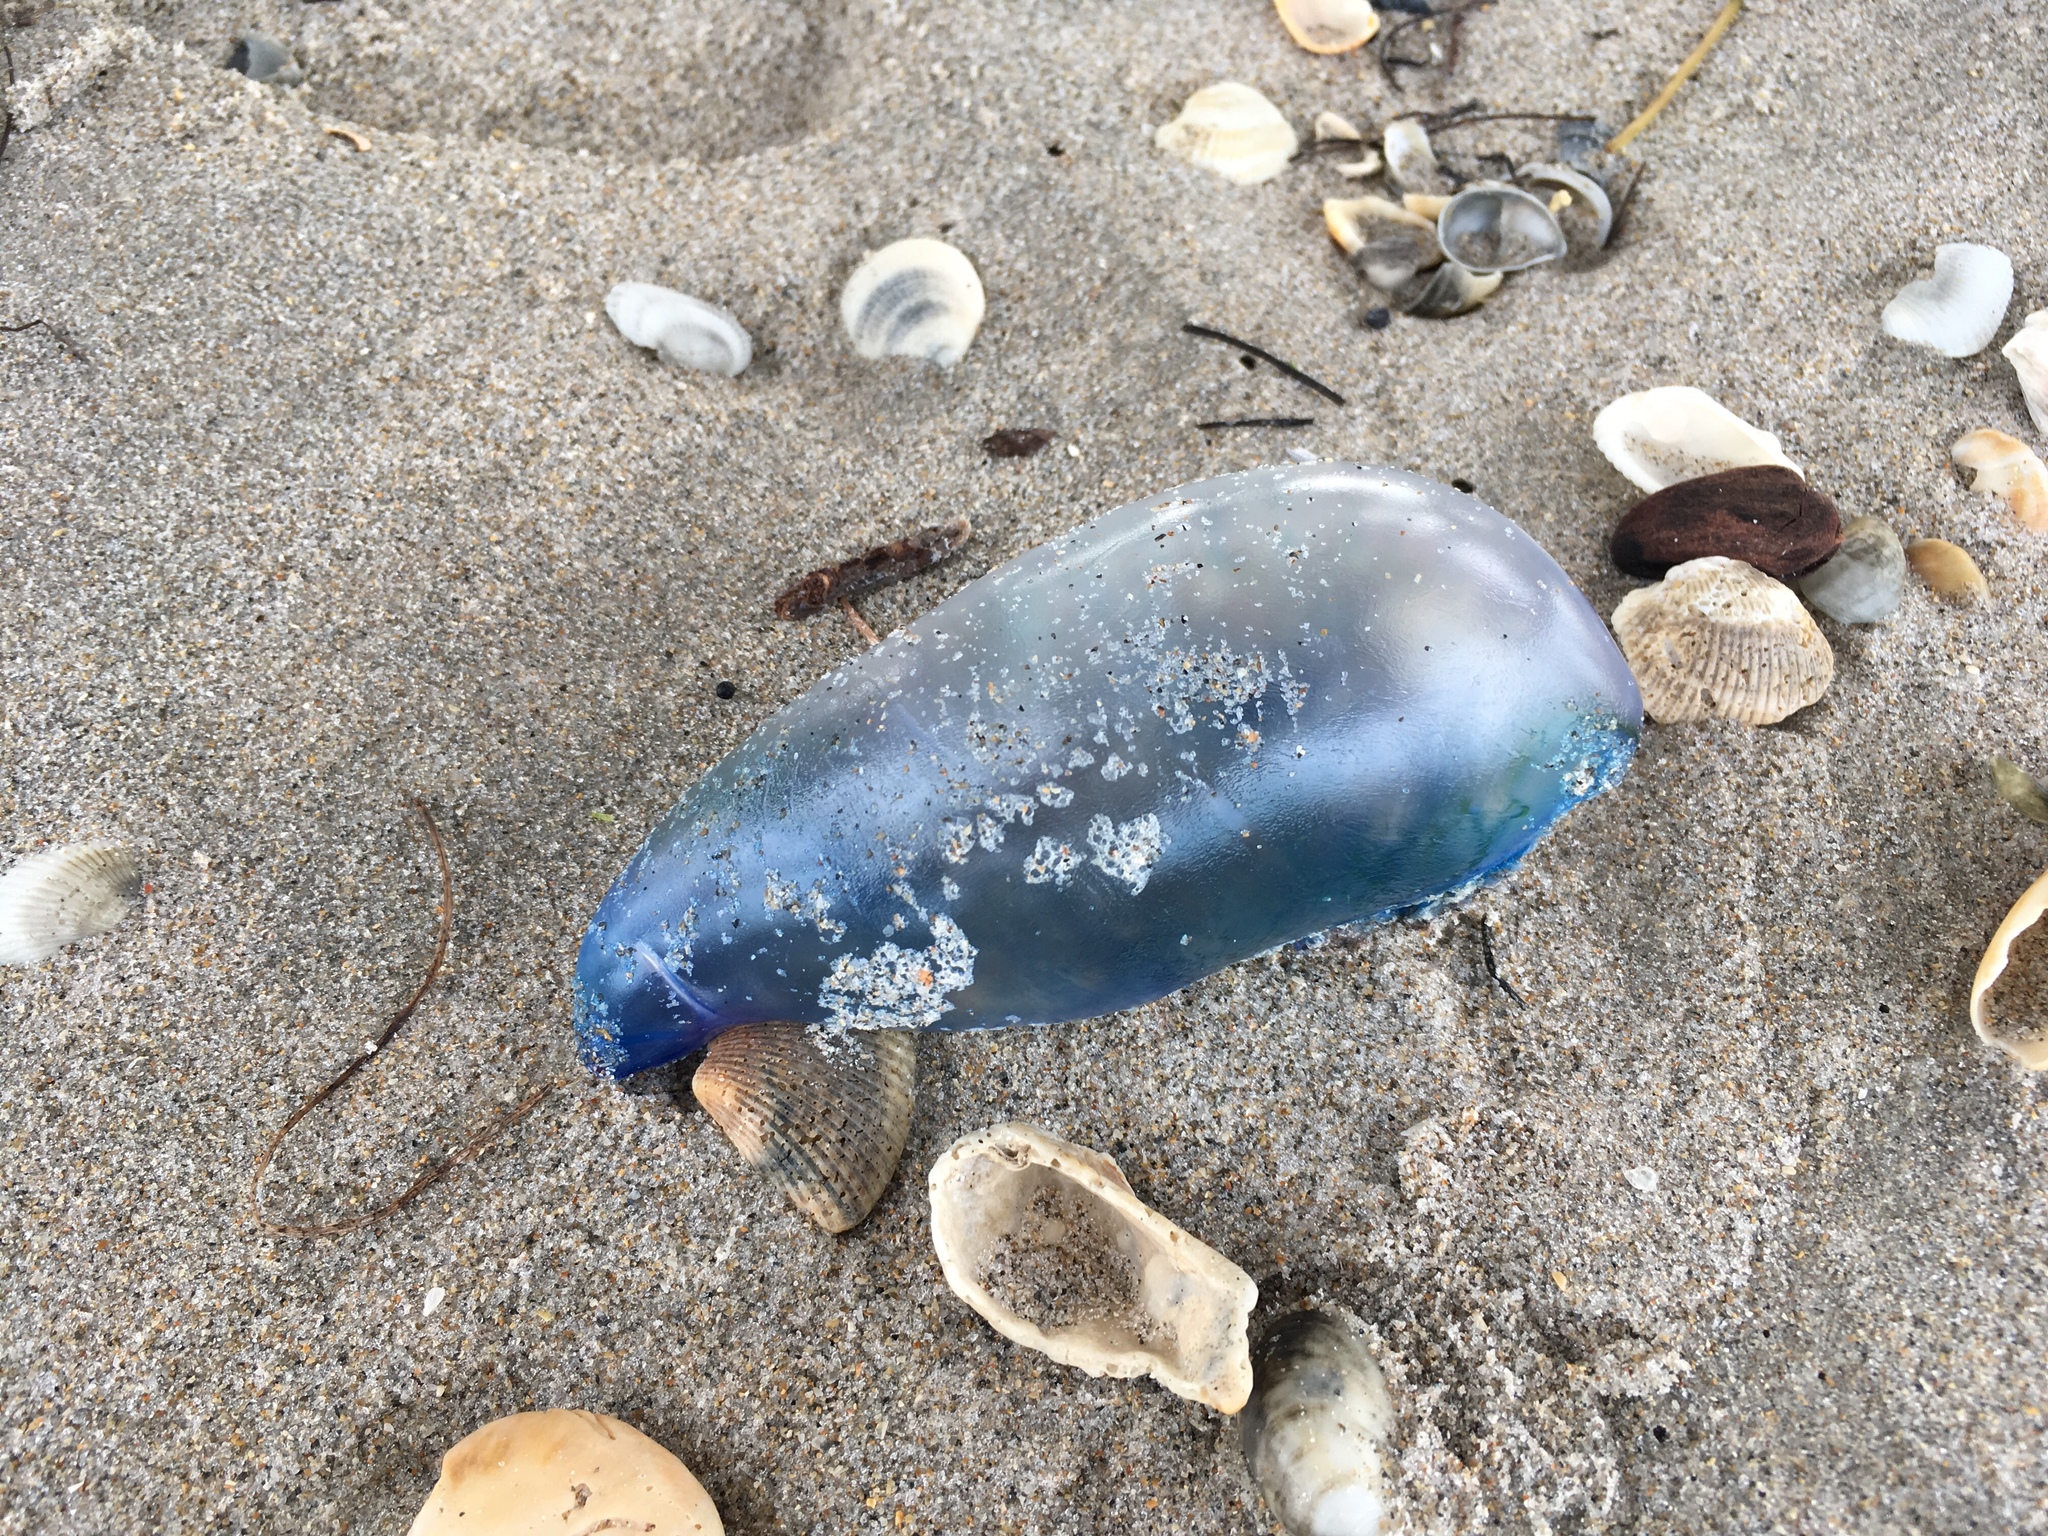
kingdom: Animalia
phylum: Cnidaria
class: Hydrozoa
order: Siphonophorae
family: Physaliidae
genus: Physalia
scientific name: Physalia physalis
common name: Portuguese man-of-war
